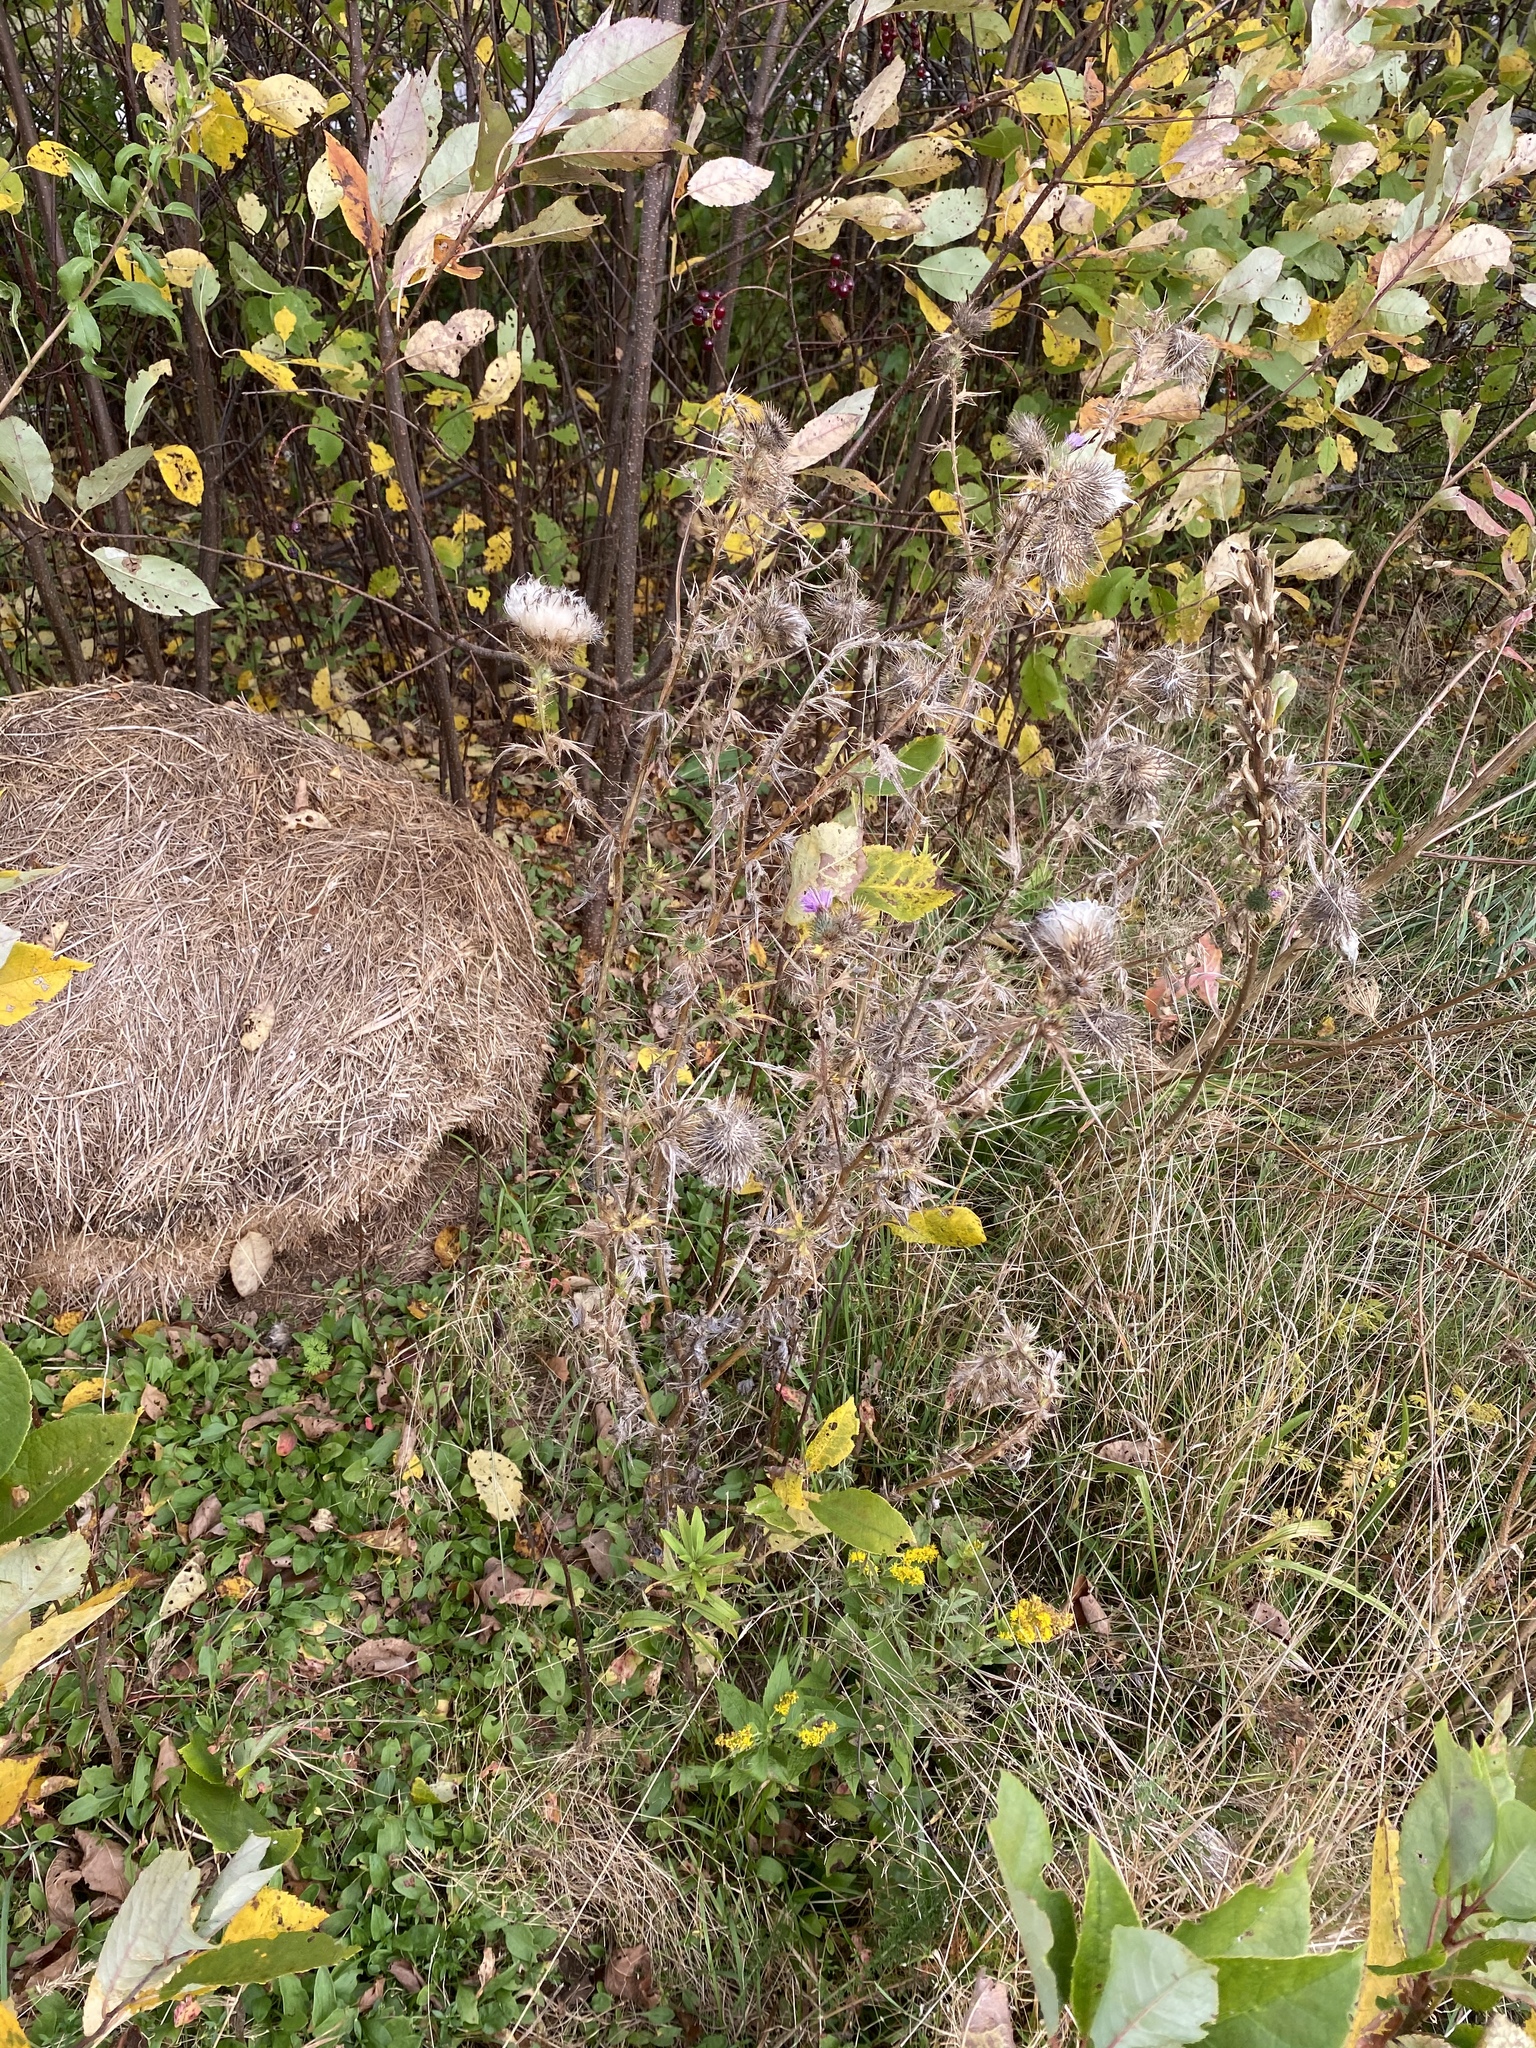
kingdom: Plantae
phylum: Tracheophyta
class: Magnoliopsida
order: Asterales
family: Asteraceae
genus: Cirsium
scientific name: Cirsium vulgare
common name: Bull thistle
